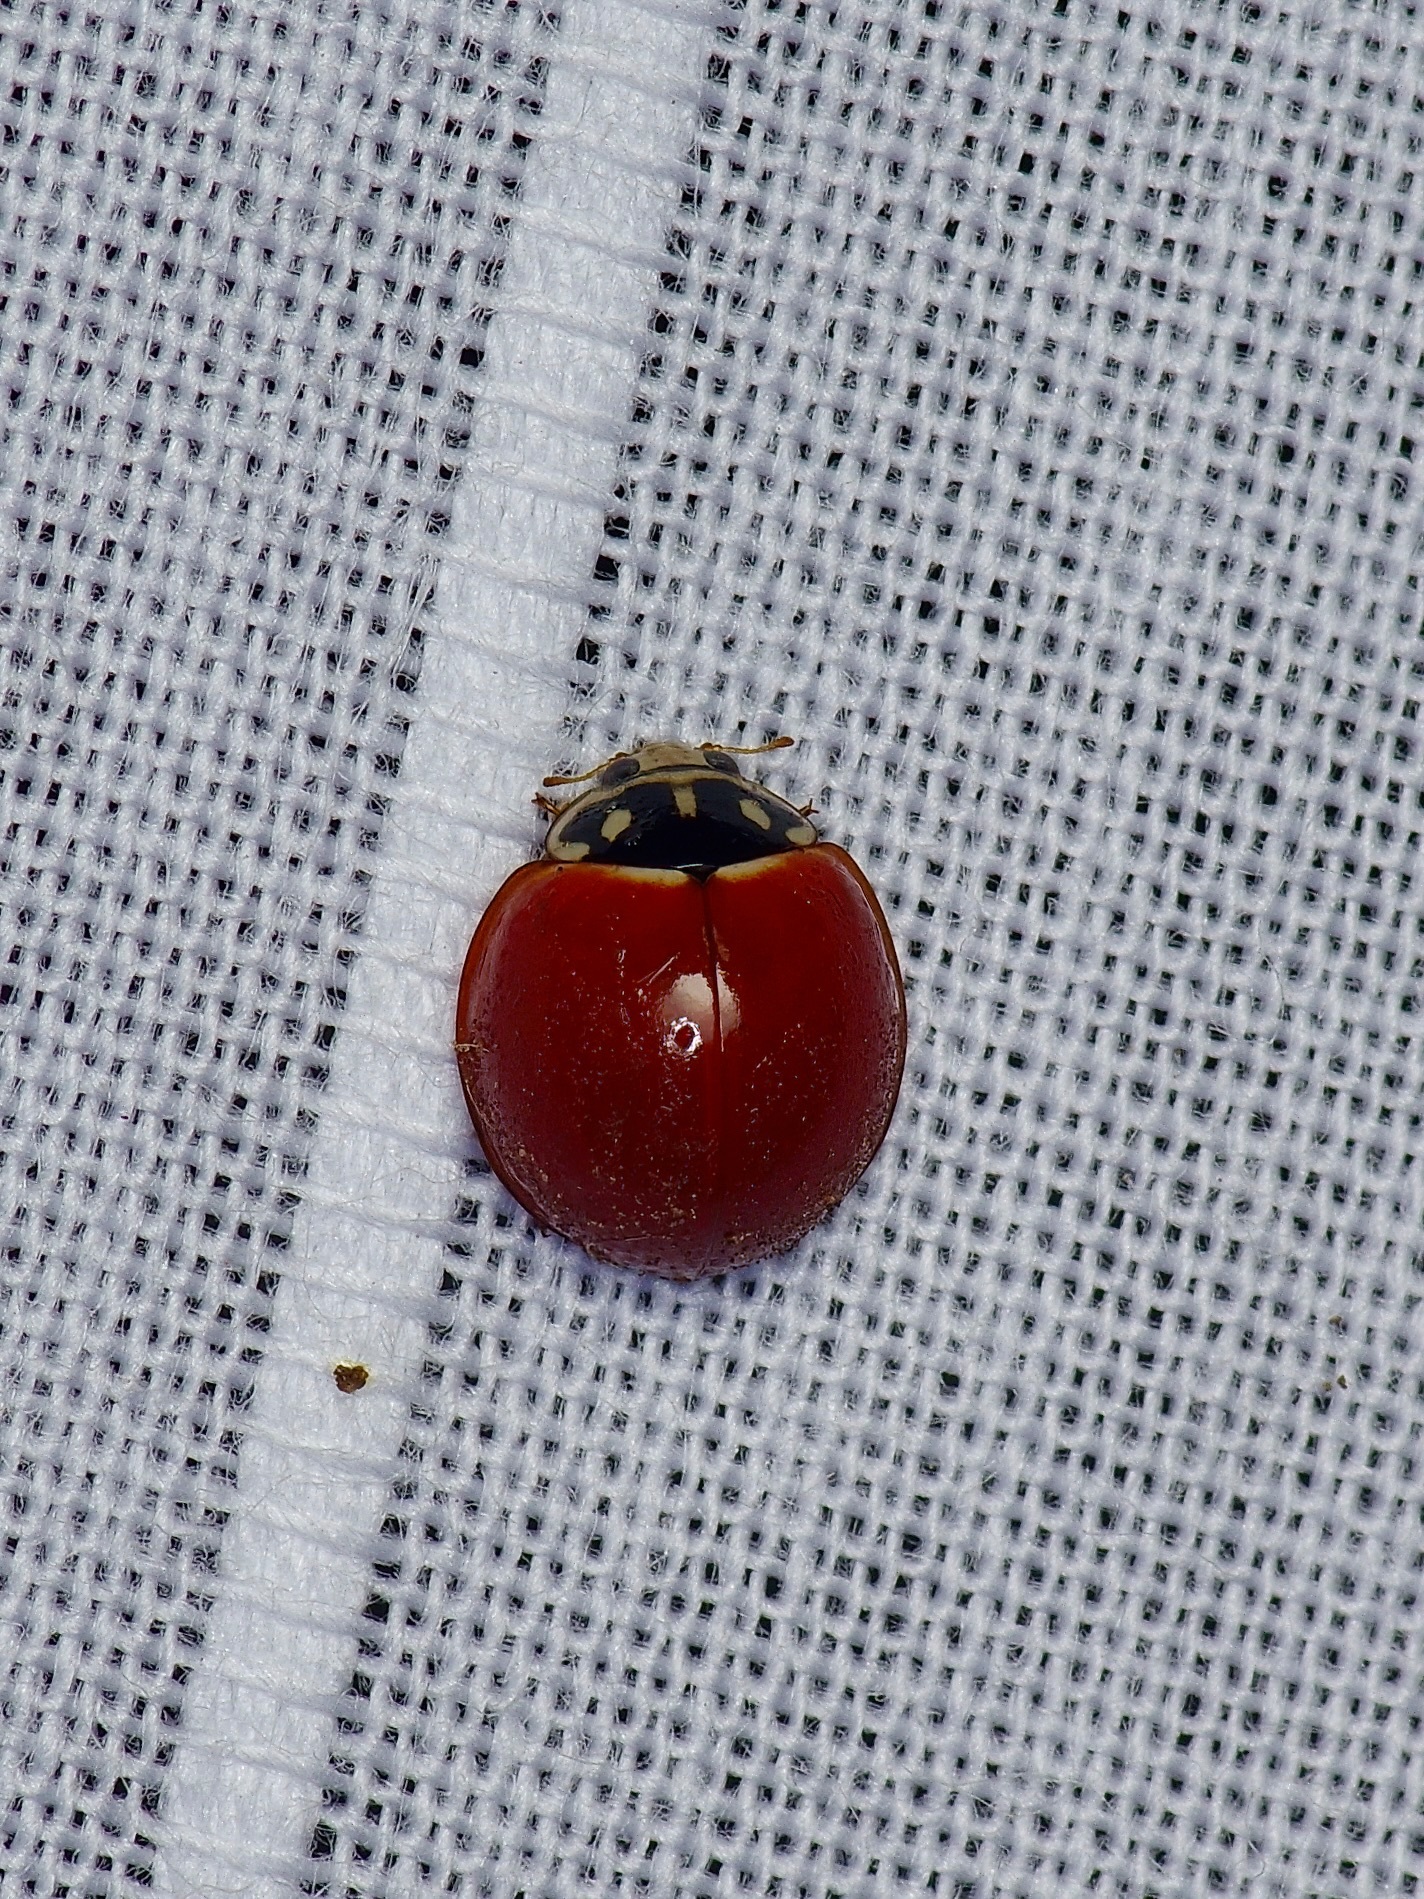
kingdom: Animalia
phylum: Arthropoda
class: Insecta
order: Coleoptera
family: Coccinellidae
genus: Cycloneda
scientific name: Cycloneda sanguinea
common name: Ladybird beetle
